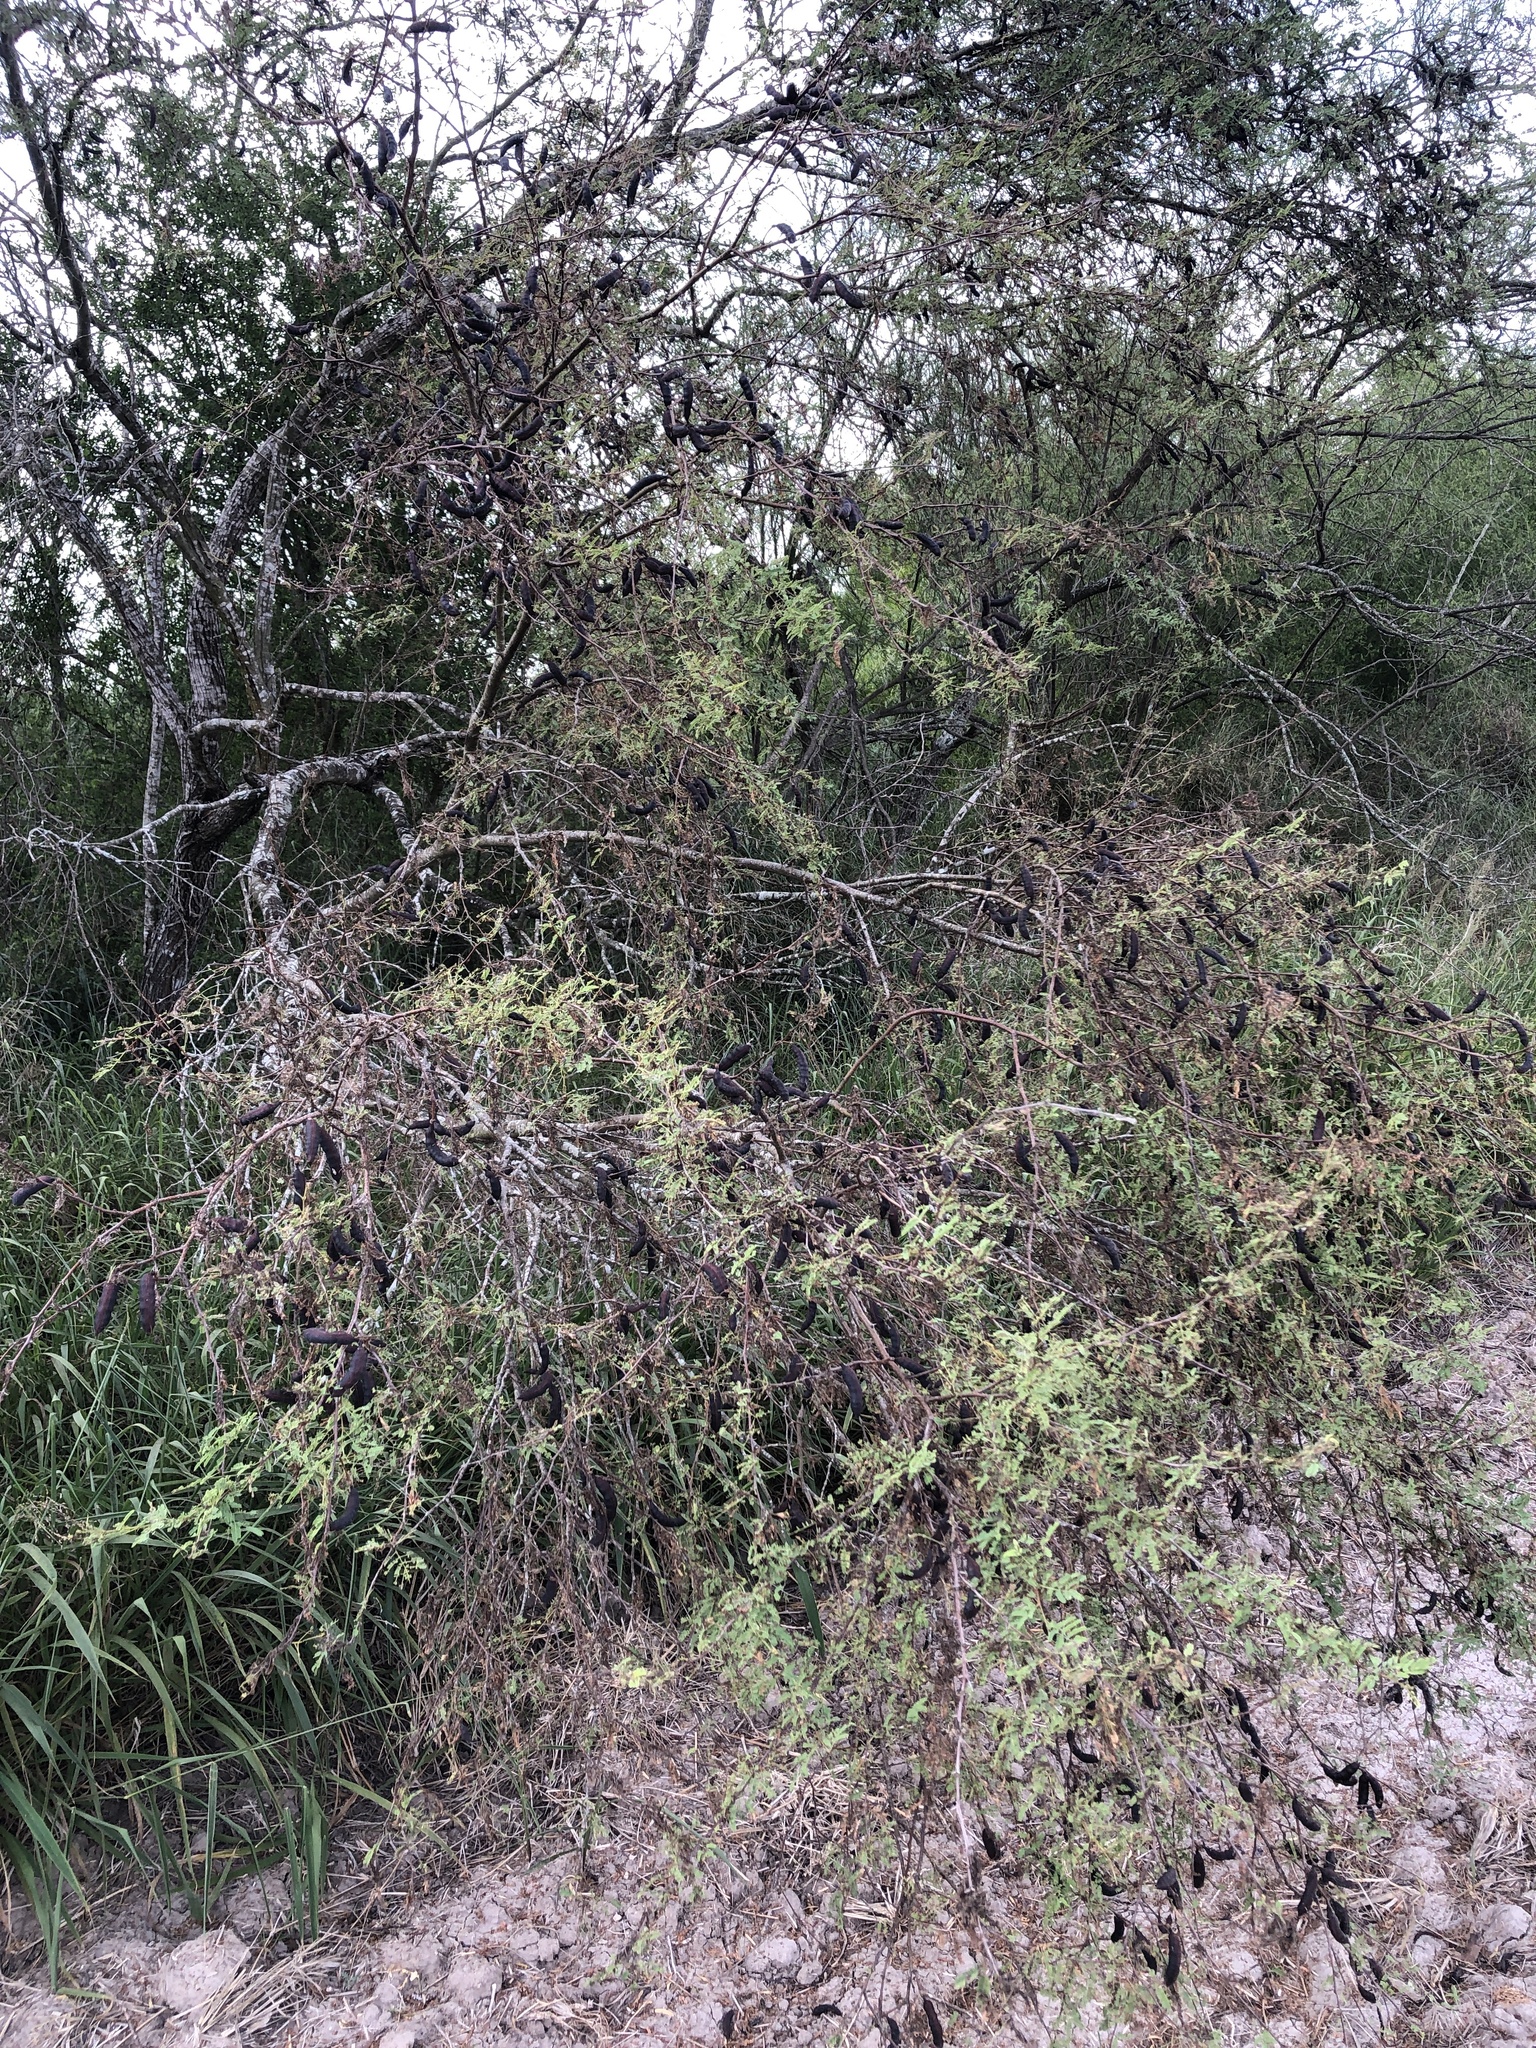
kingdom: Plantae
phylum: Tracheophyta
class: Magnoliopsida
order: Fabales
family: Fabaceae
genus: Vachellia
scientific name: Vachellia farnesiana
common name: Sweet acacia
